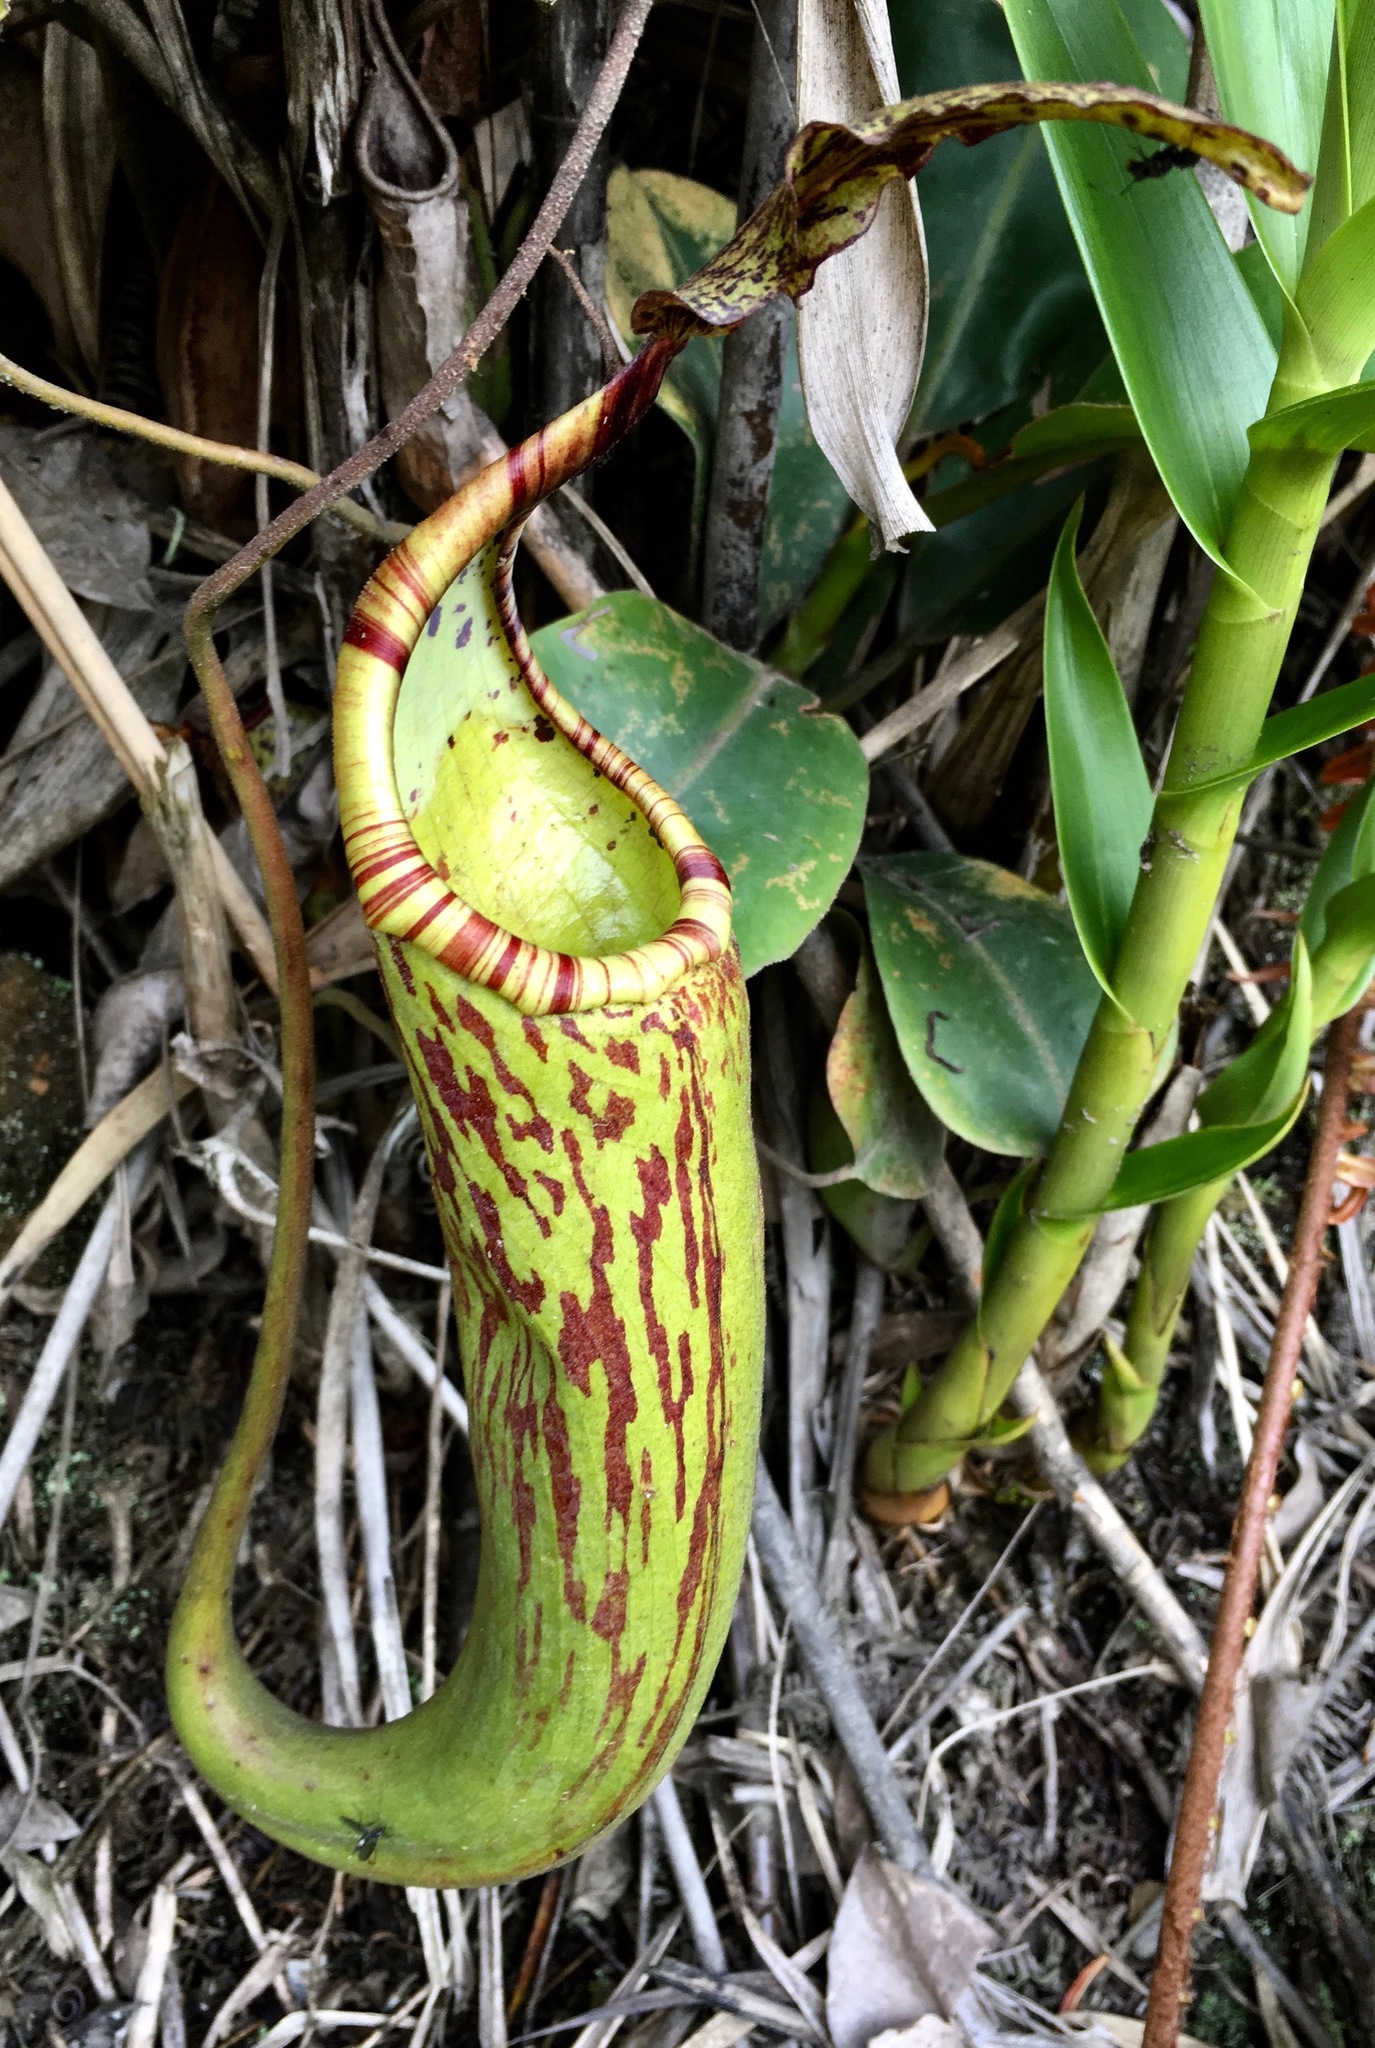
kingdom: Plantae
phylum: Tracheophyta
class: Magnoliopsida
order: Caryophyllales
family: Nepenthaceae
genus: Nepenthes
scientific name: Nepenthes dactylifera
